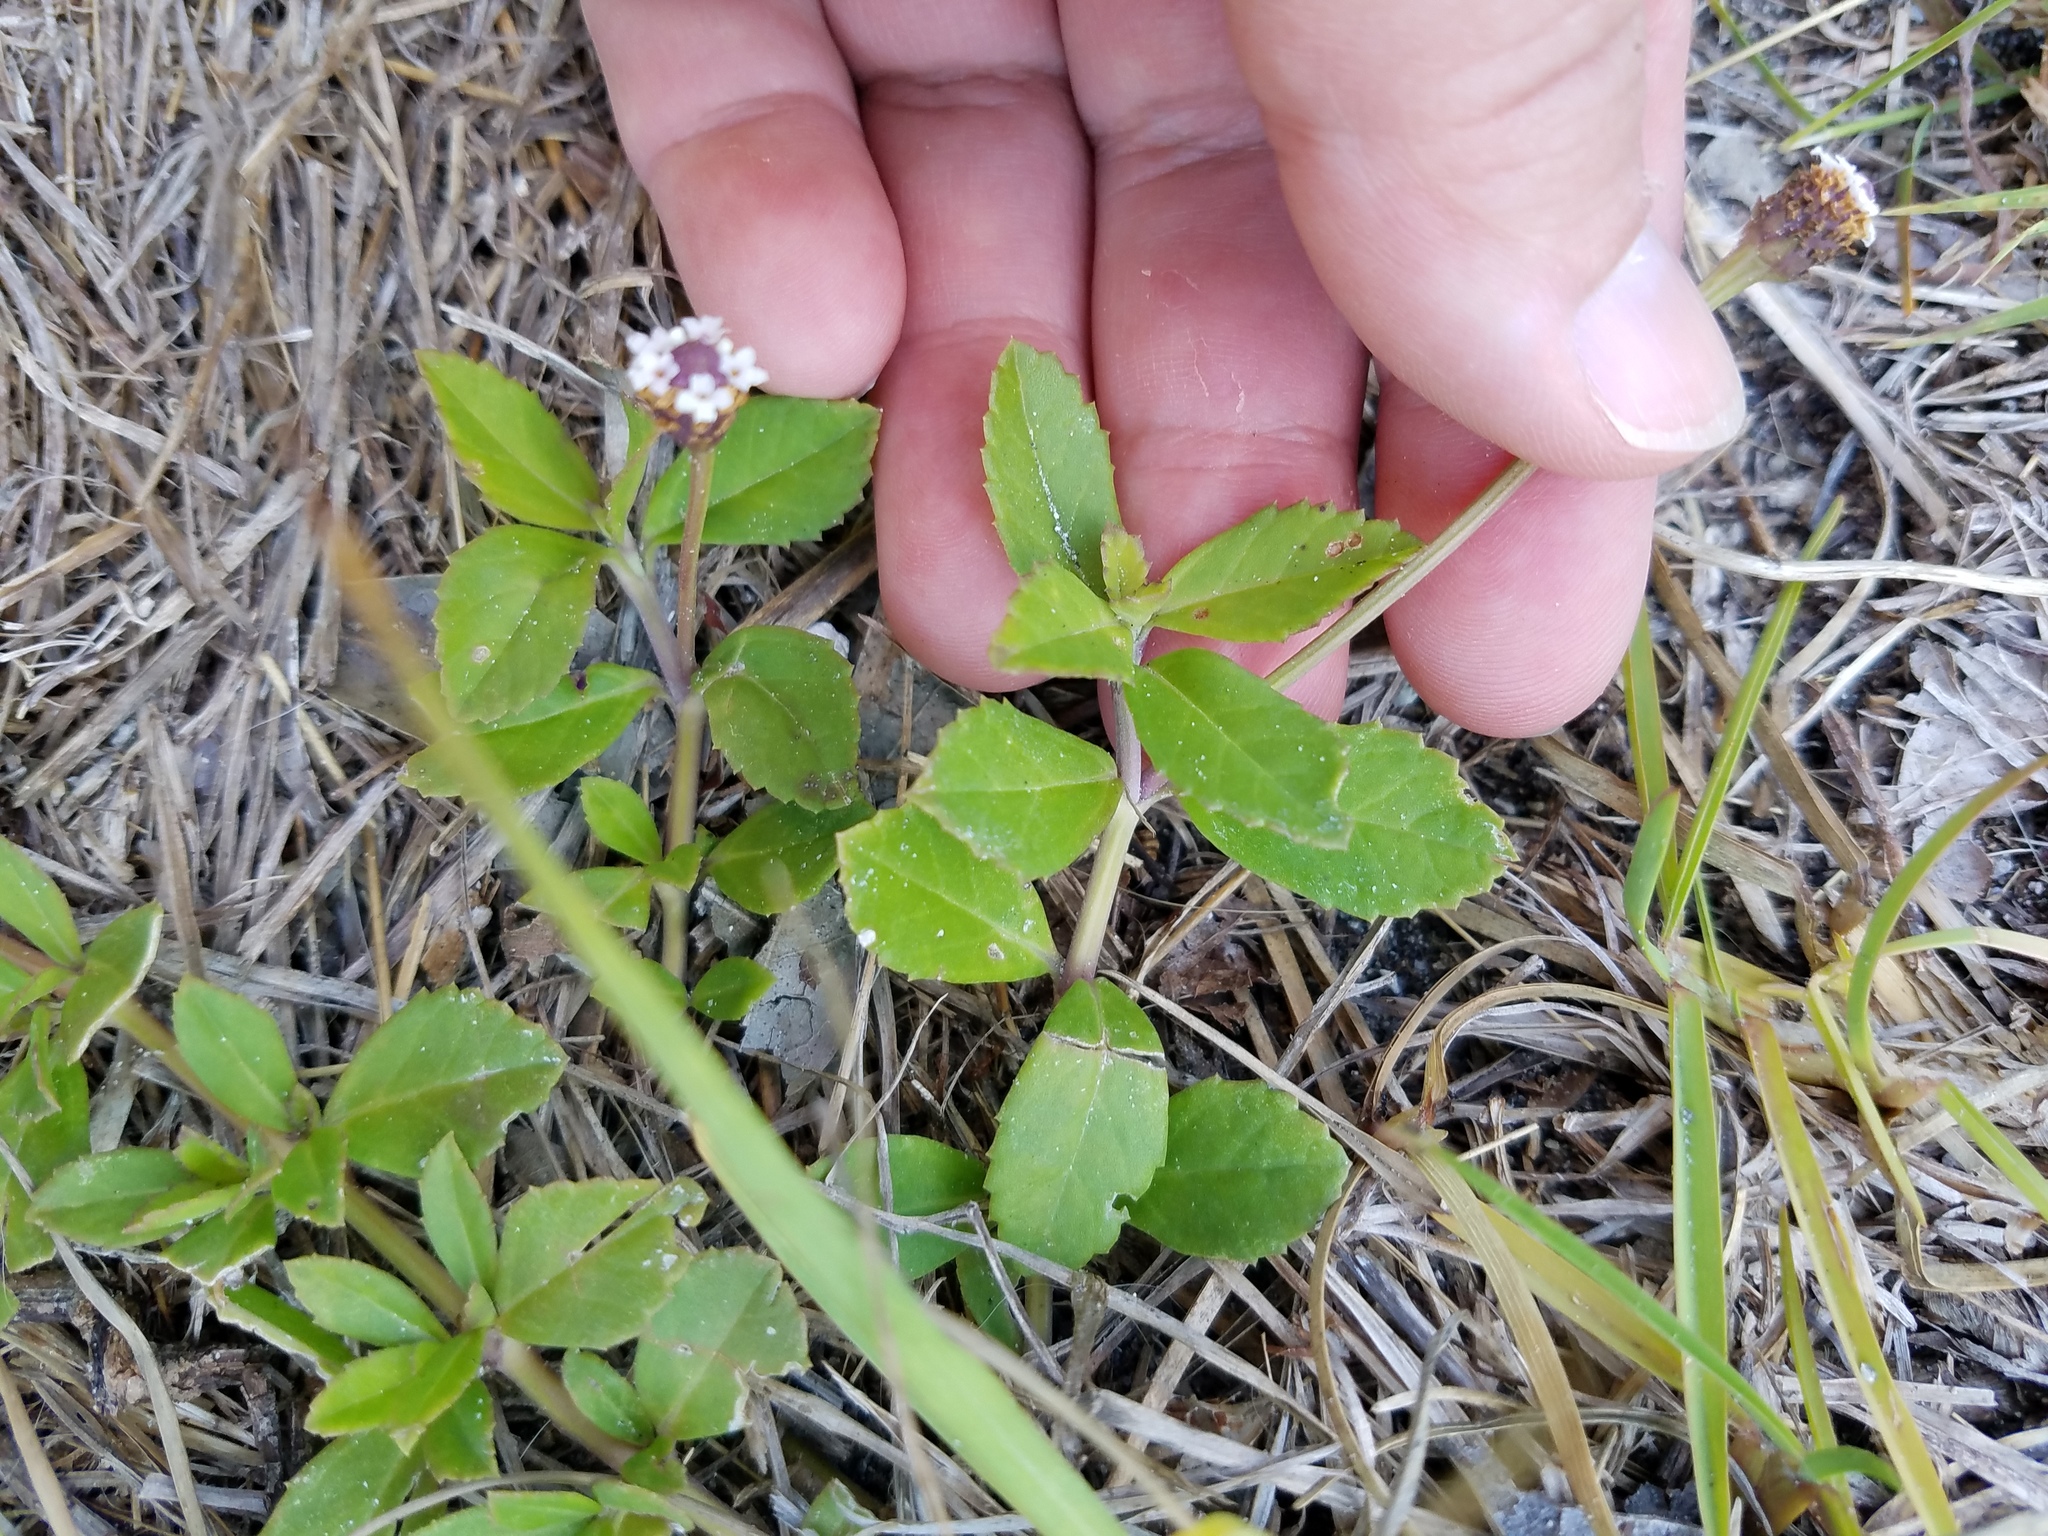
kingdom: Plantae
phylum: Tracheophyta
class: Magnoliopsida
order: Lamiales
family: Verbenaceae
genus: Phyla
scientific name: Phyla nodiflora
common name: Frogfruit
